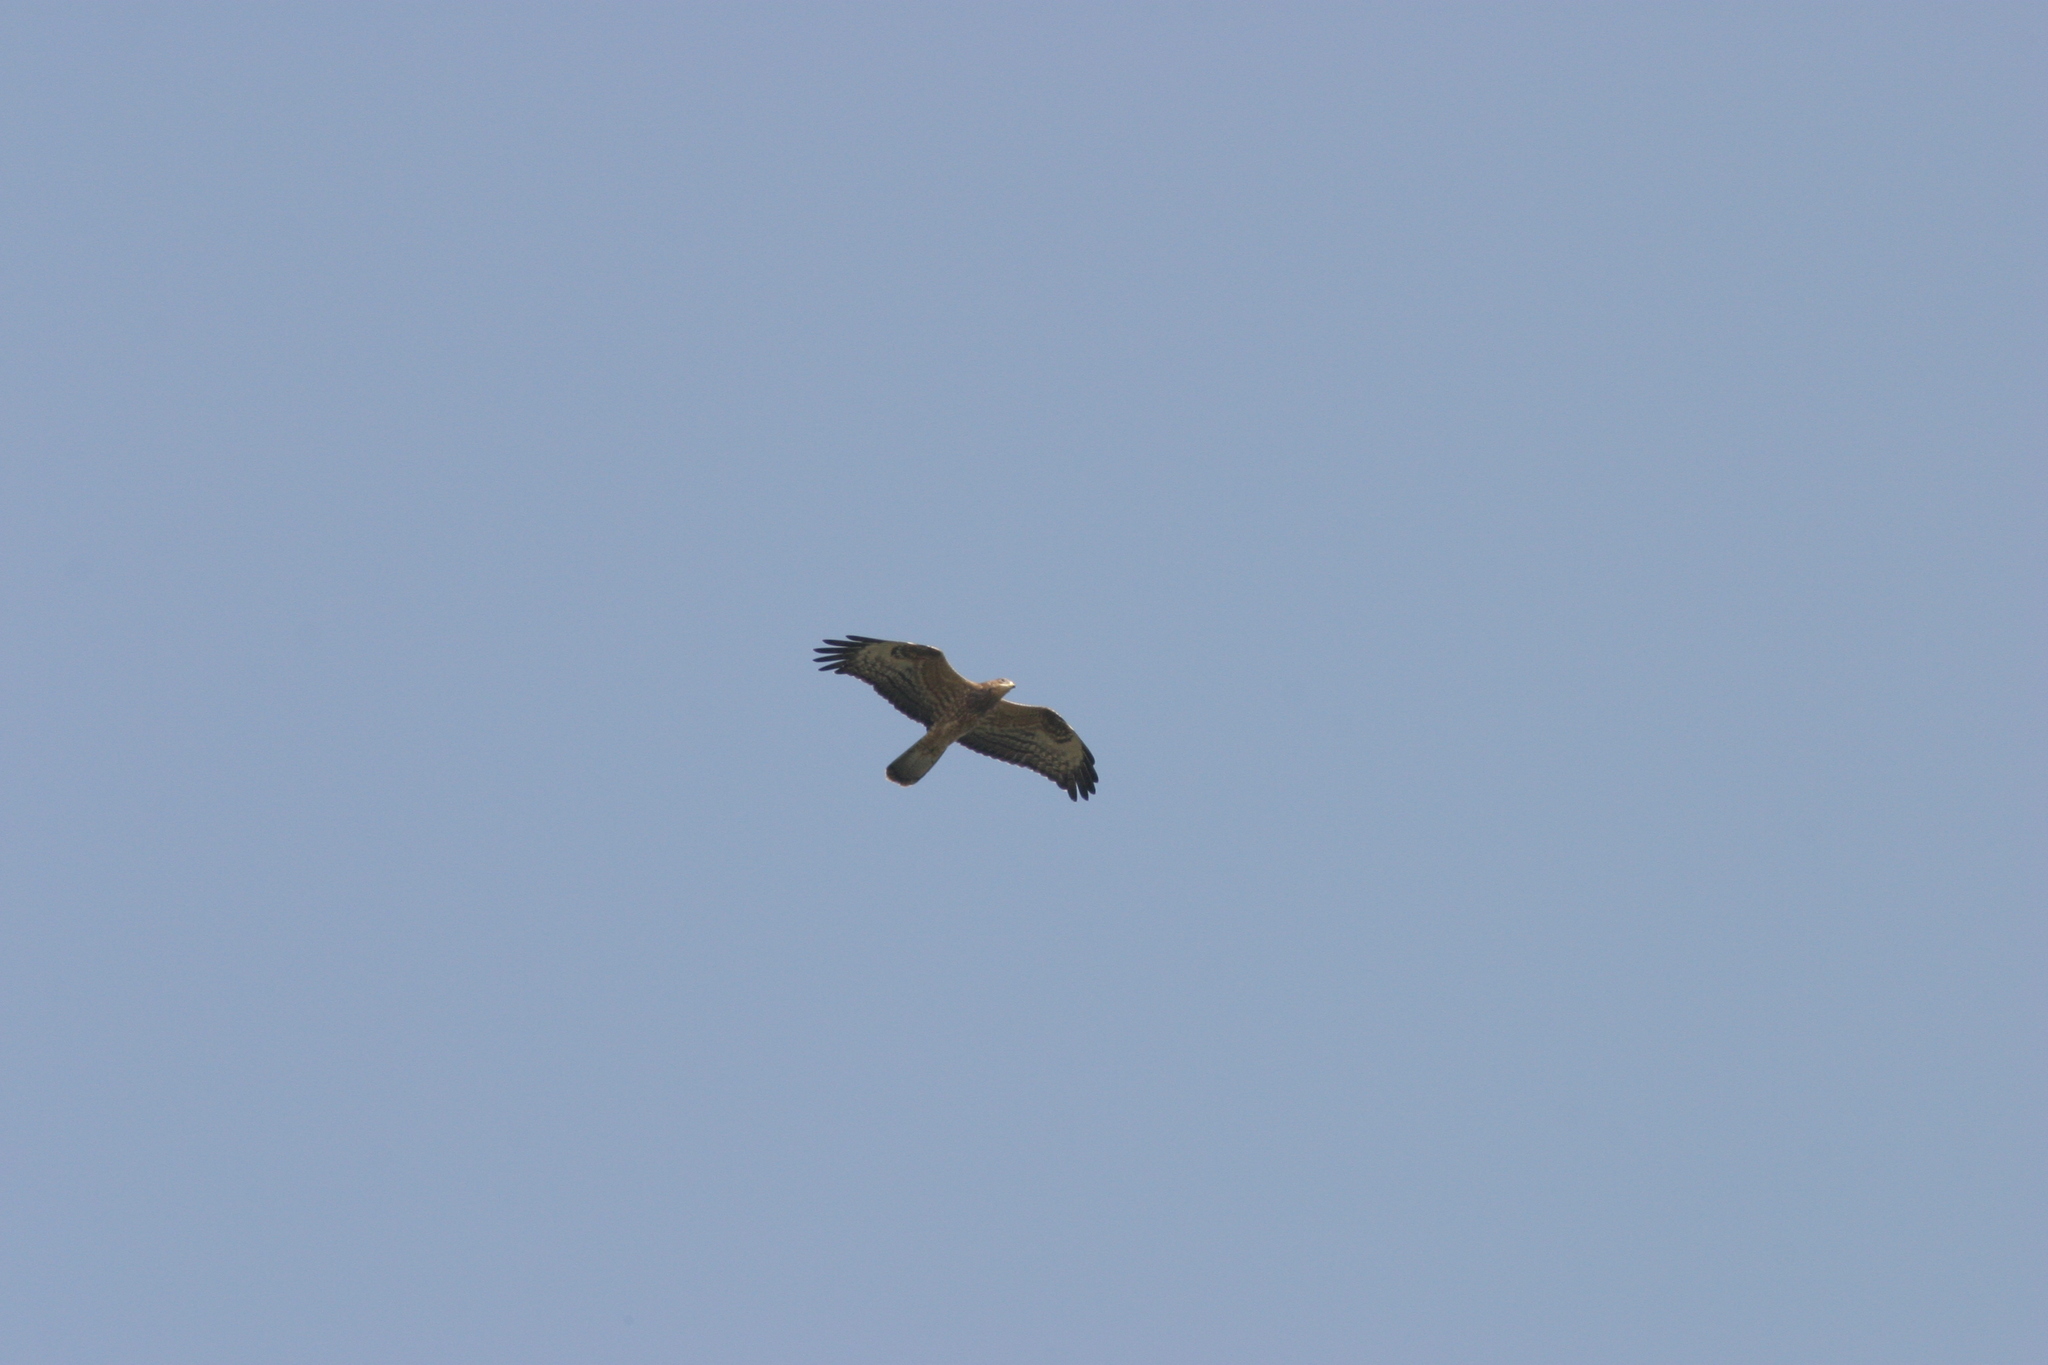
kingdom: Animalia
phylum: Chordata
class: Aves
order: Accipitriformes
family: Accipitridae
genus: Pernis
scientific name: Pernis apivorus
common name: European honey buzzard
